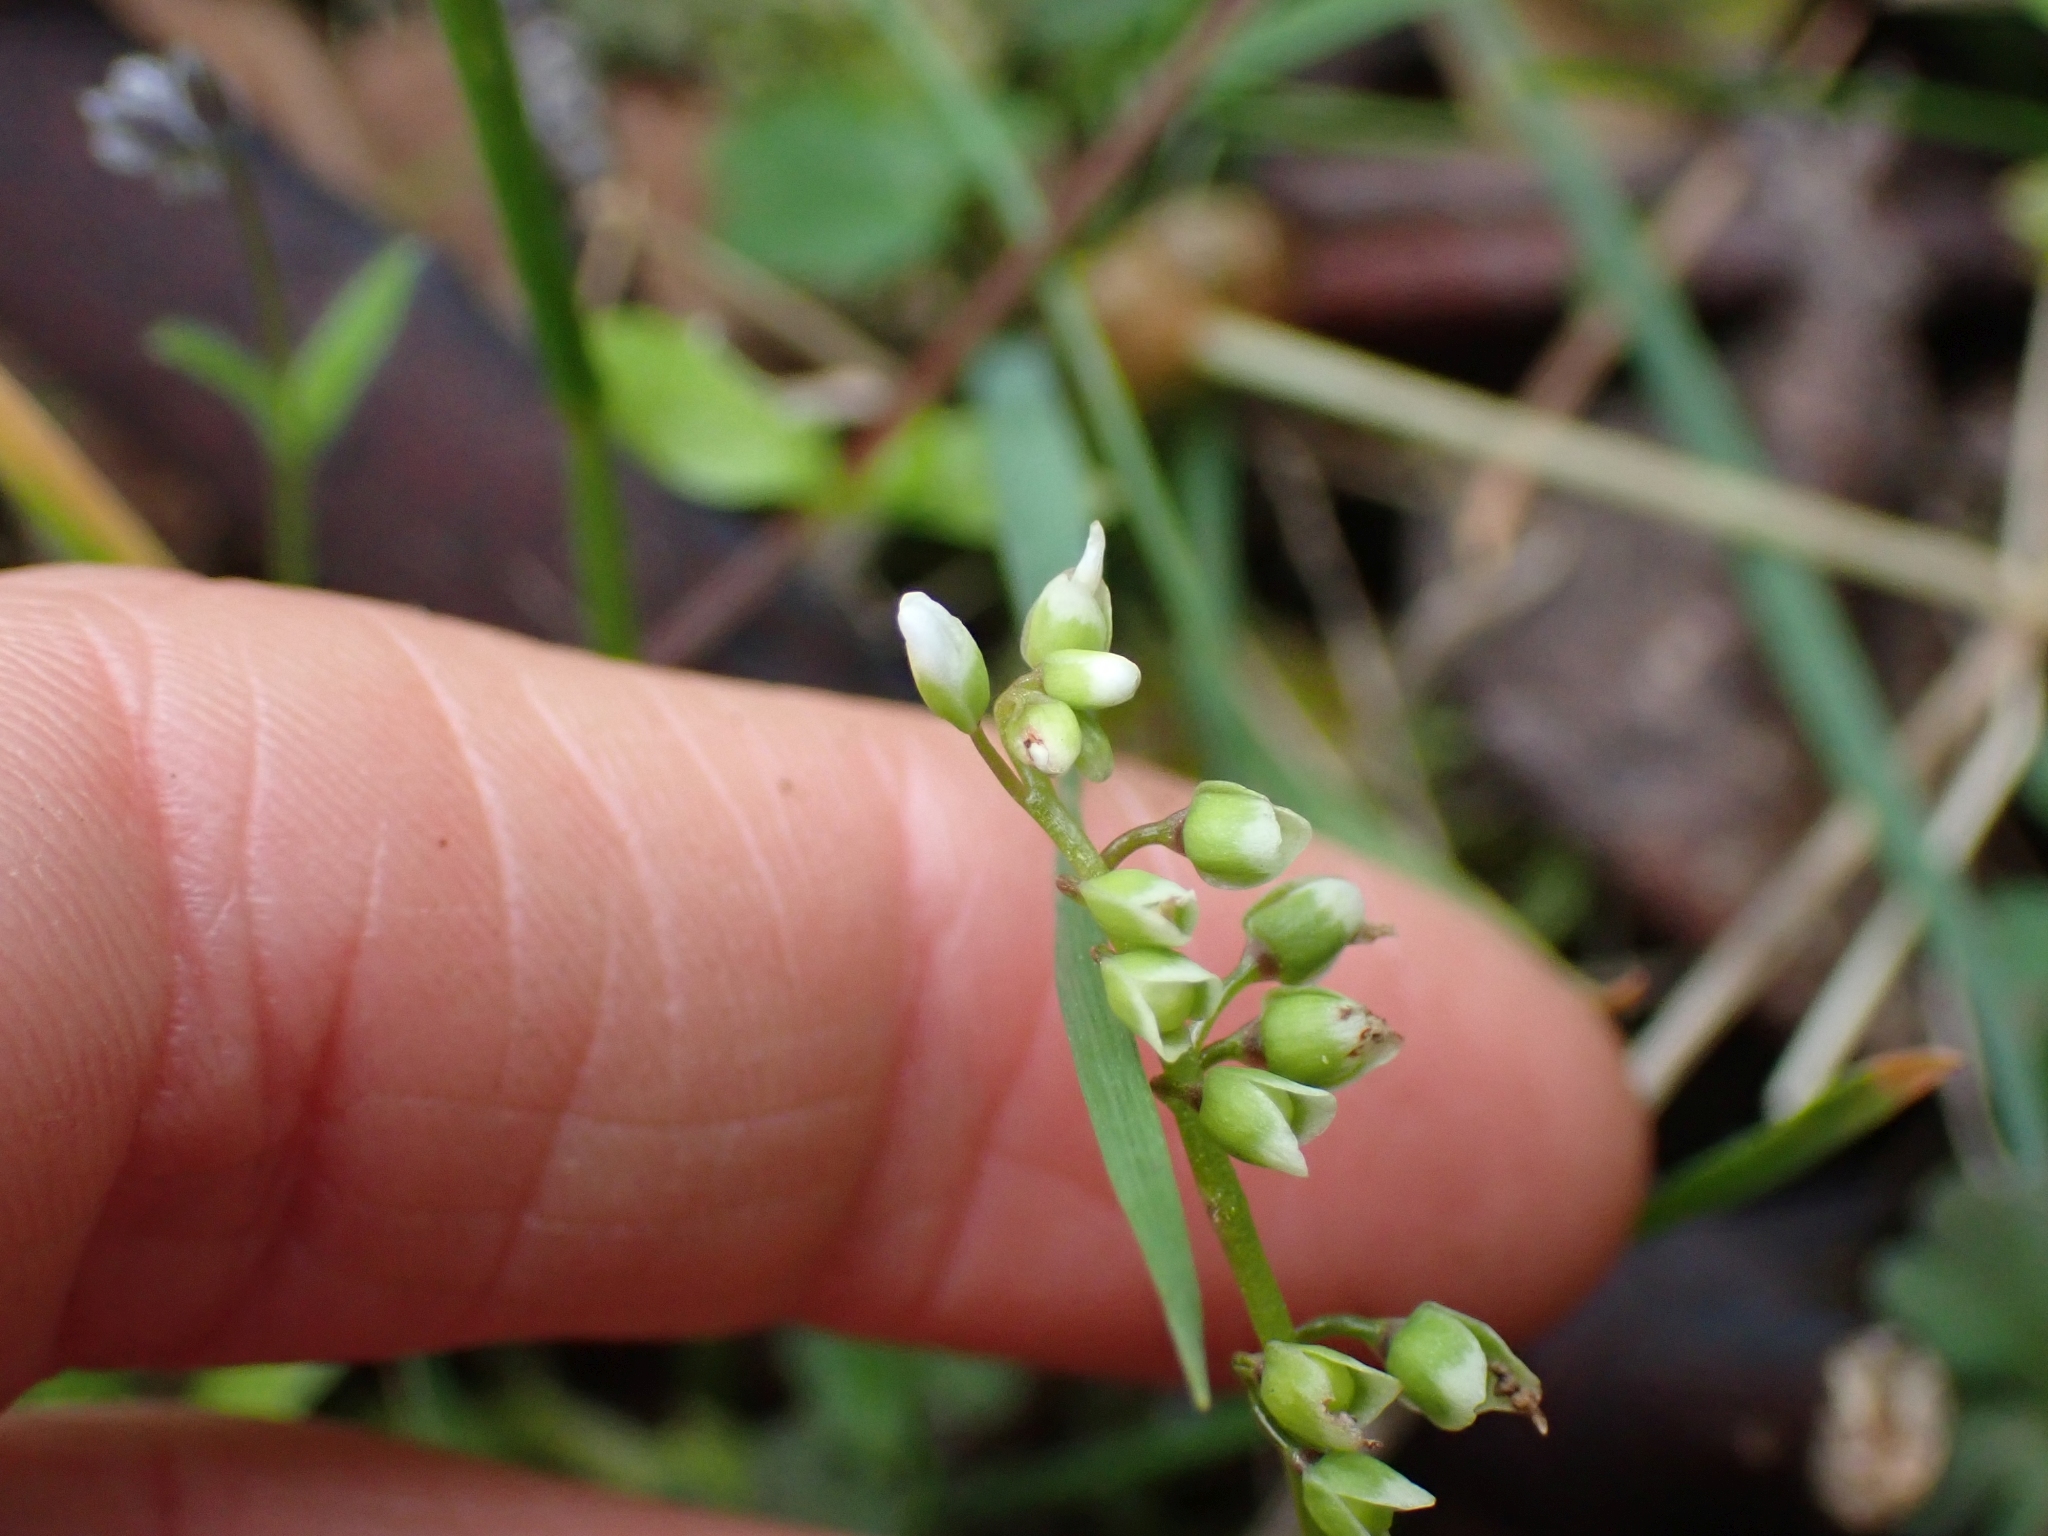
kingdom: Plantae
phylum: Tracheophyta
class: Magnoliopsida
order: Caryophyllales
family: Montiaceae
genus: Claytonia
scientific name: Claytonia perfoliata
